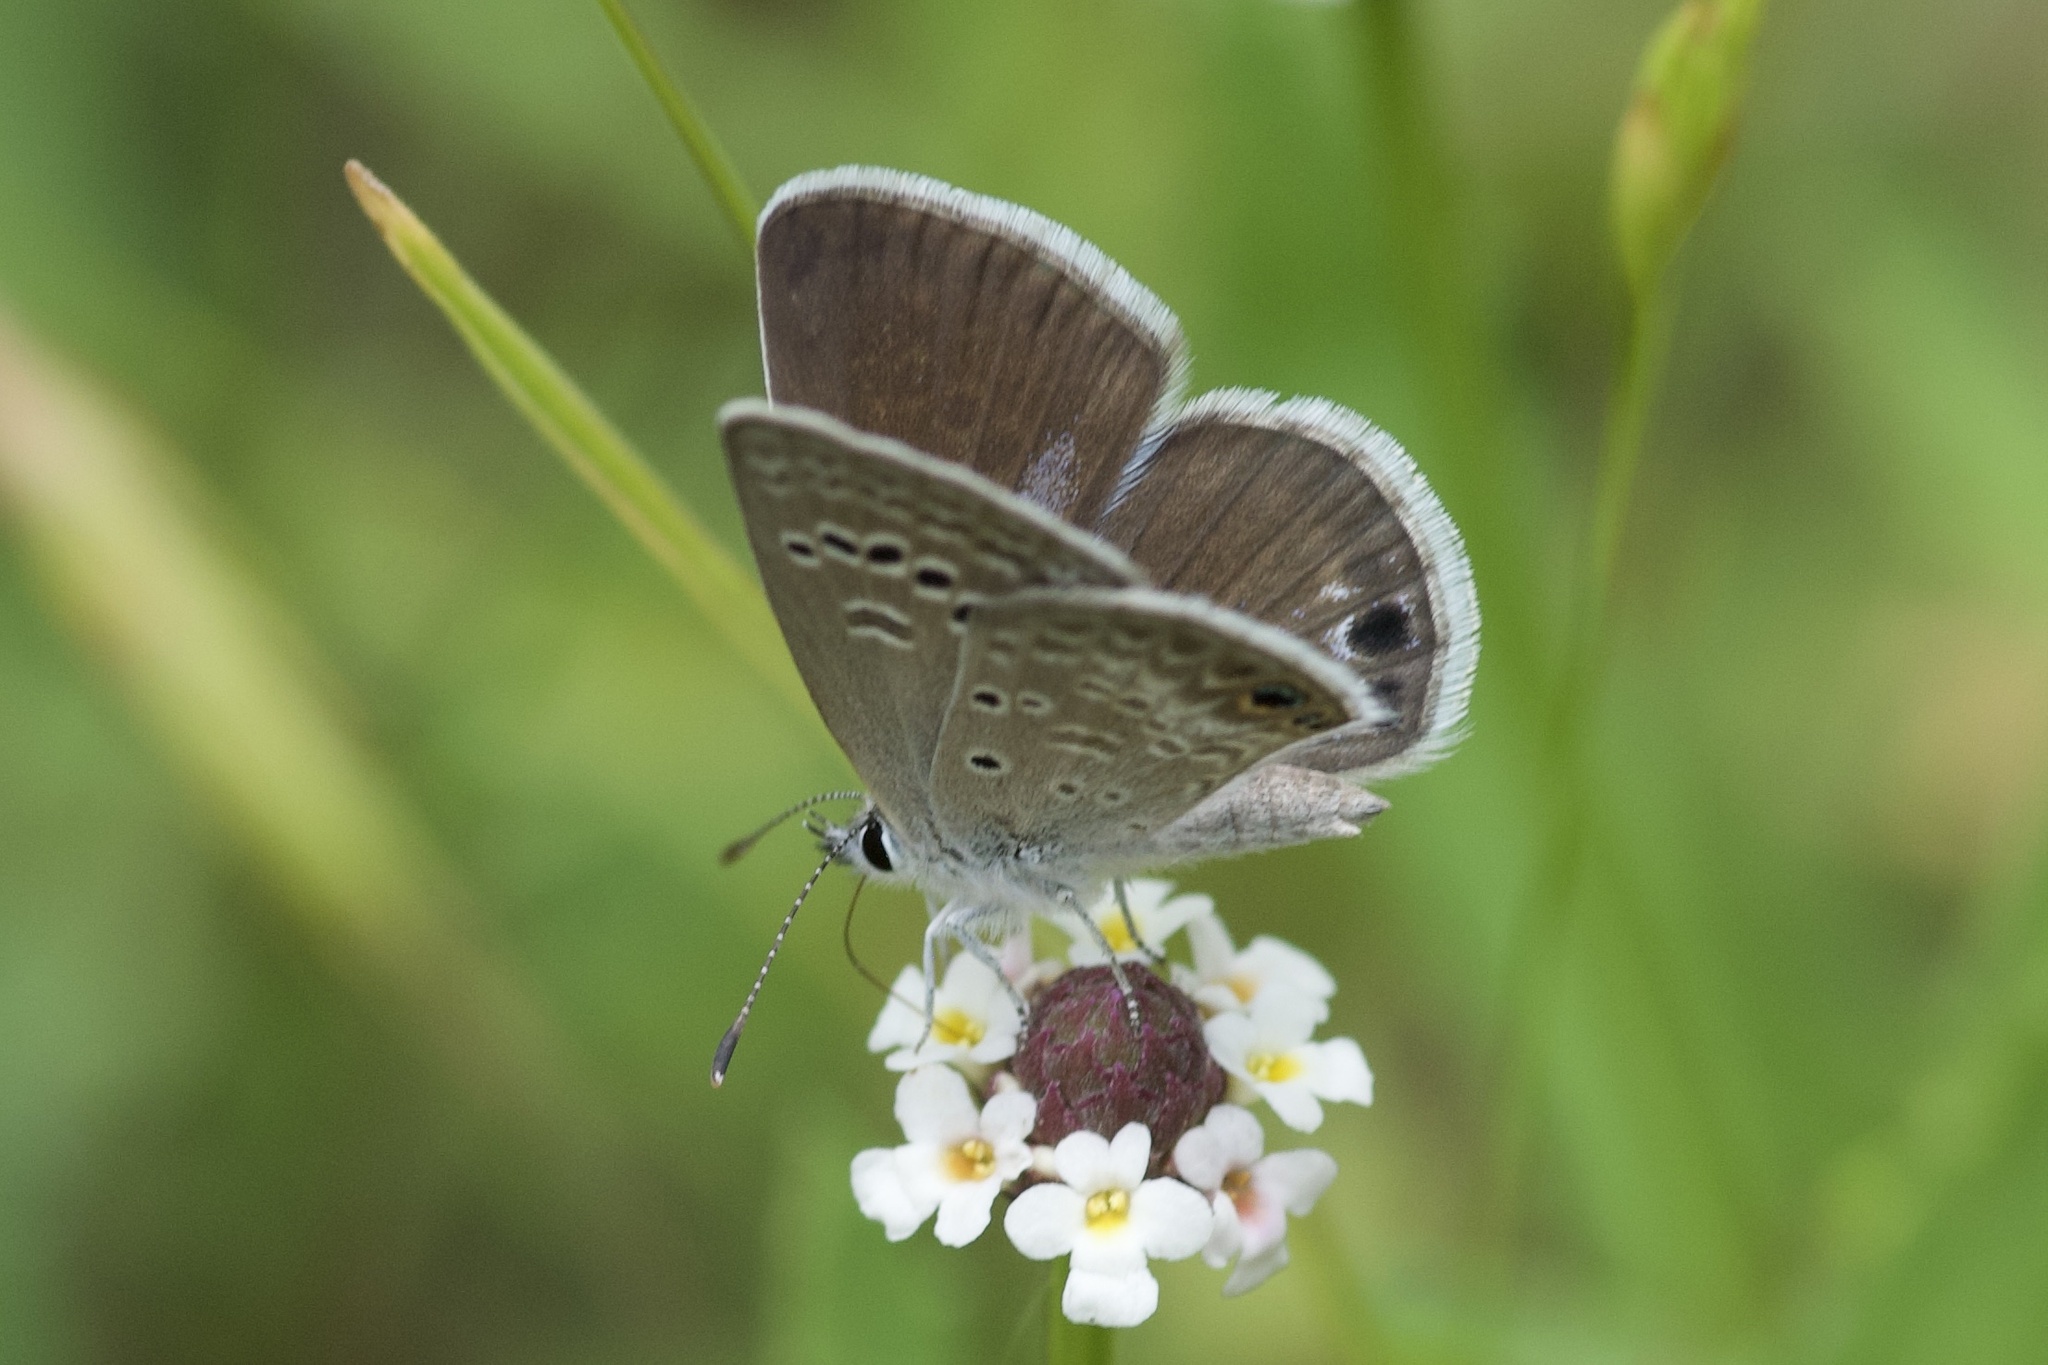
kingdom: Animalia
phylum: Arthropoda
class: Insecta
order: Lepidoptera
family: Lycaenidae
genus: Echinargus
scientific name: Echinargus isola
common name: Reakirt's blue
